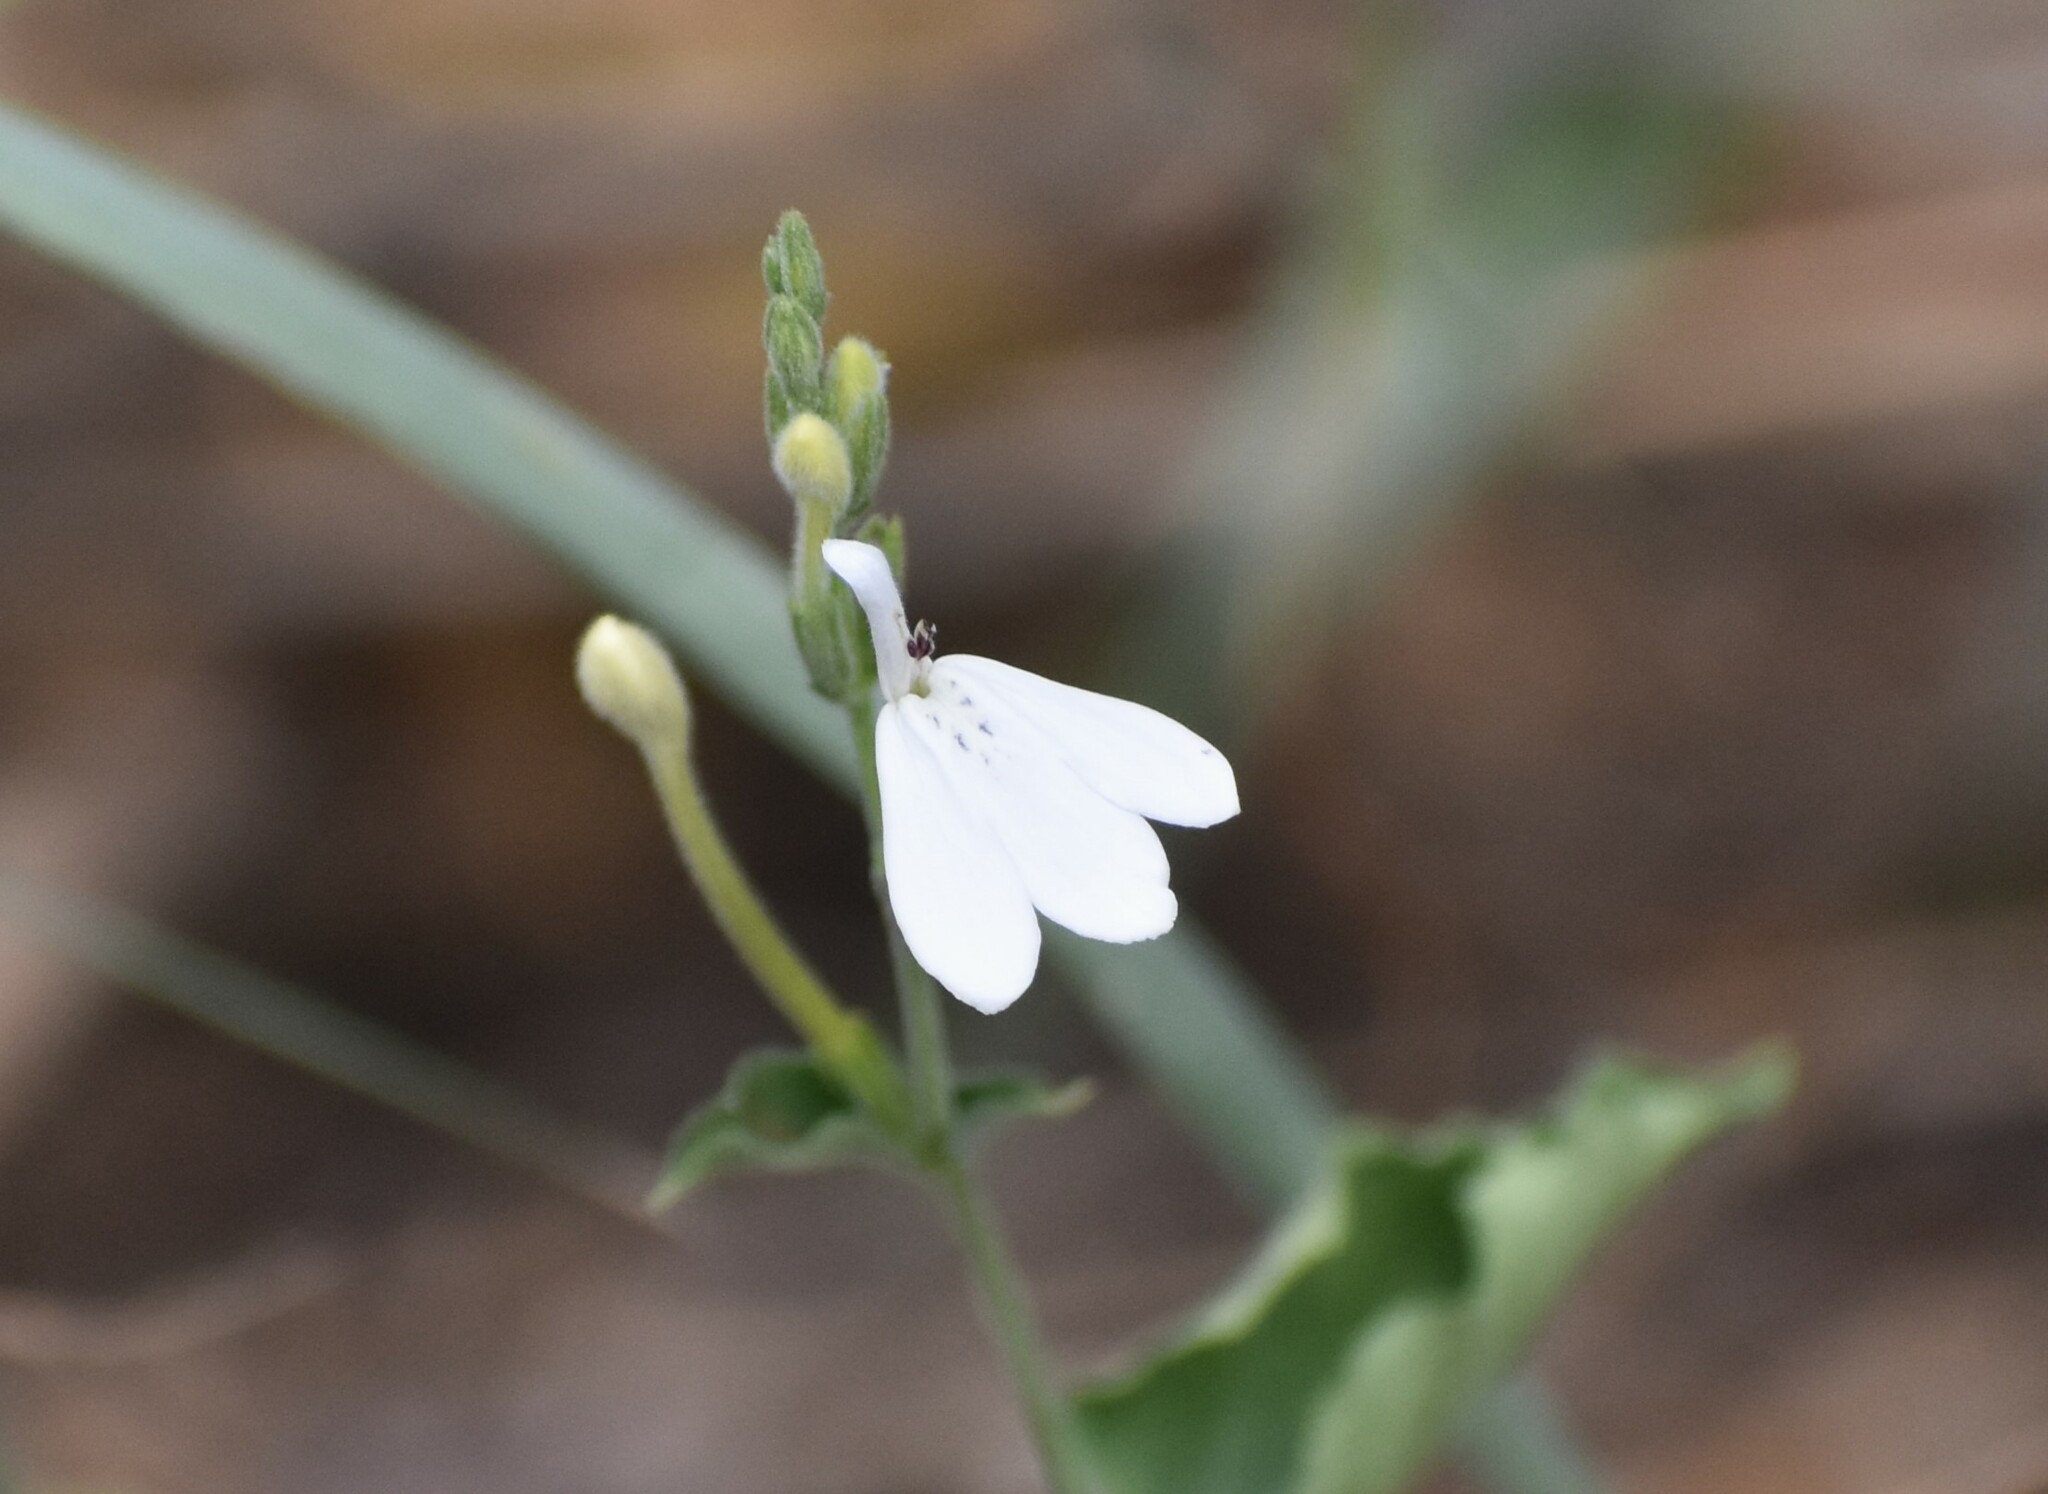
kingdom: Plantae
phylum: Tracheophyta
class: Magnoliopsida
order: Lamiales
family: Acanthaceae
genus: Rhinacanthus
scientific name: Rhinacanthus xerophilus
